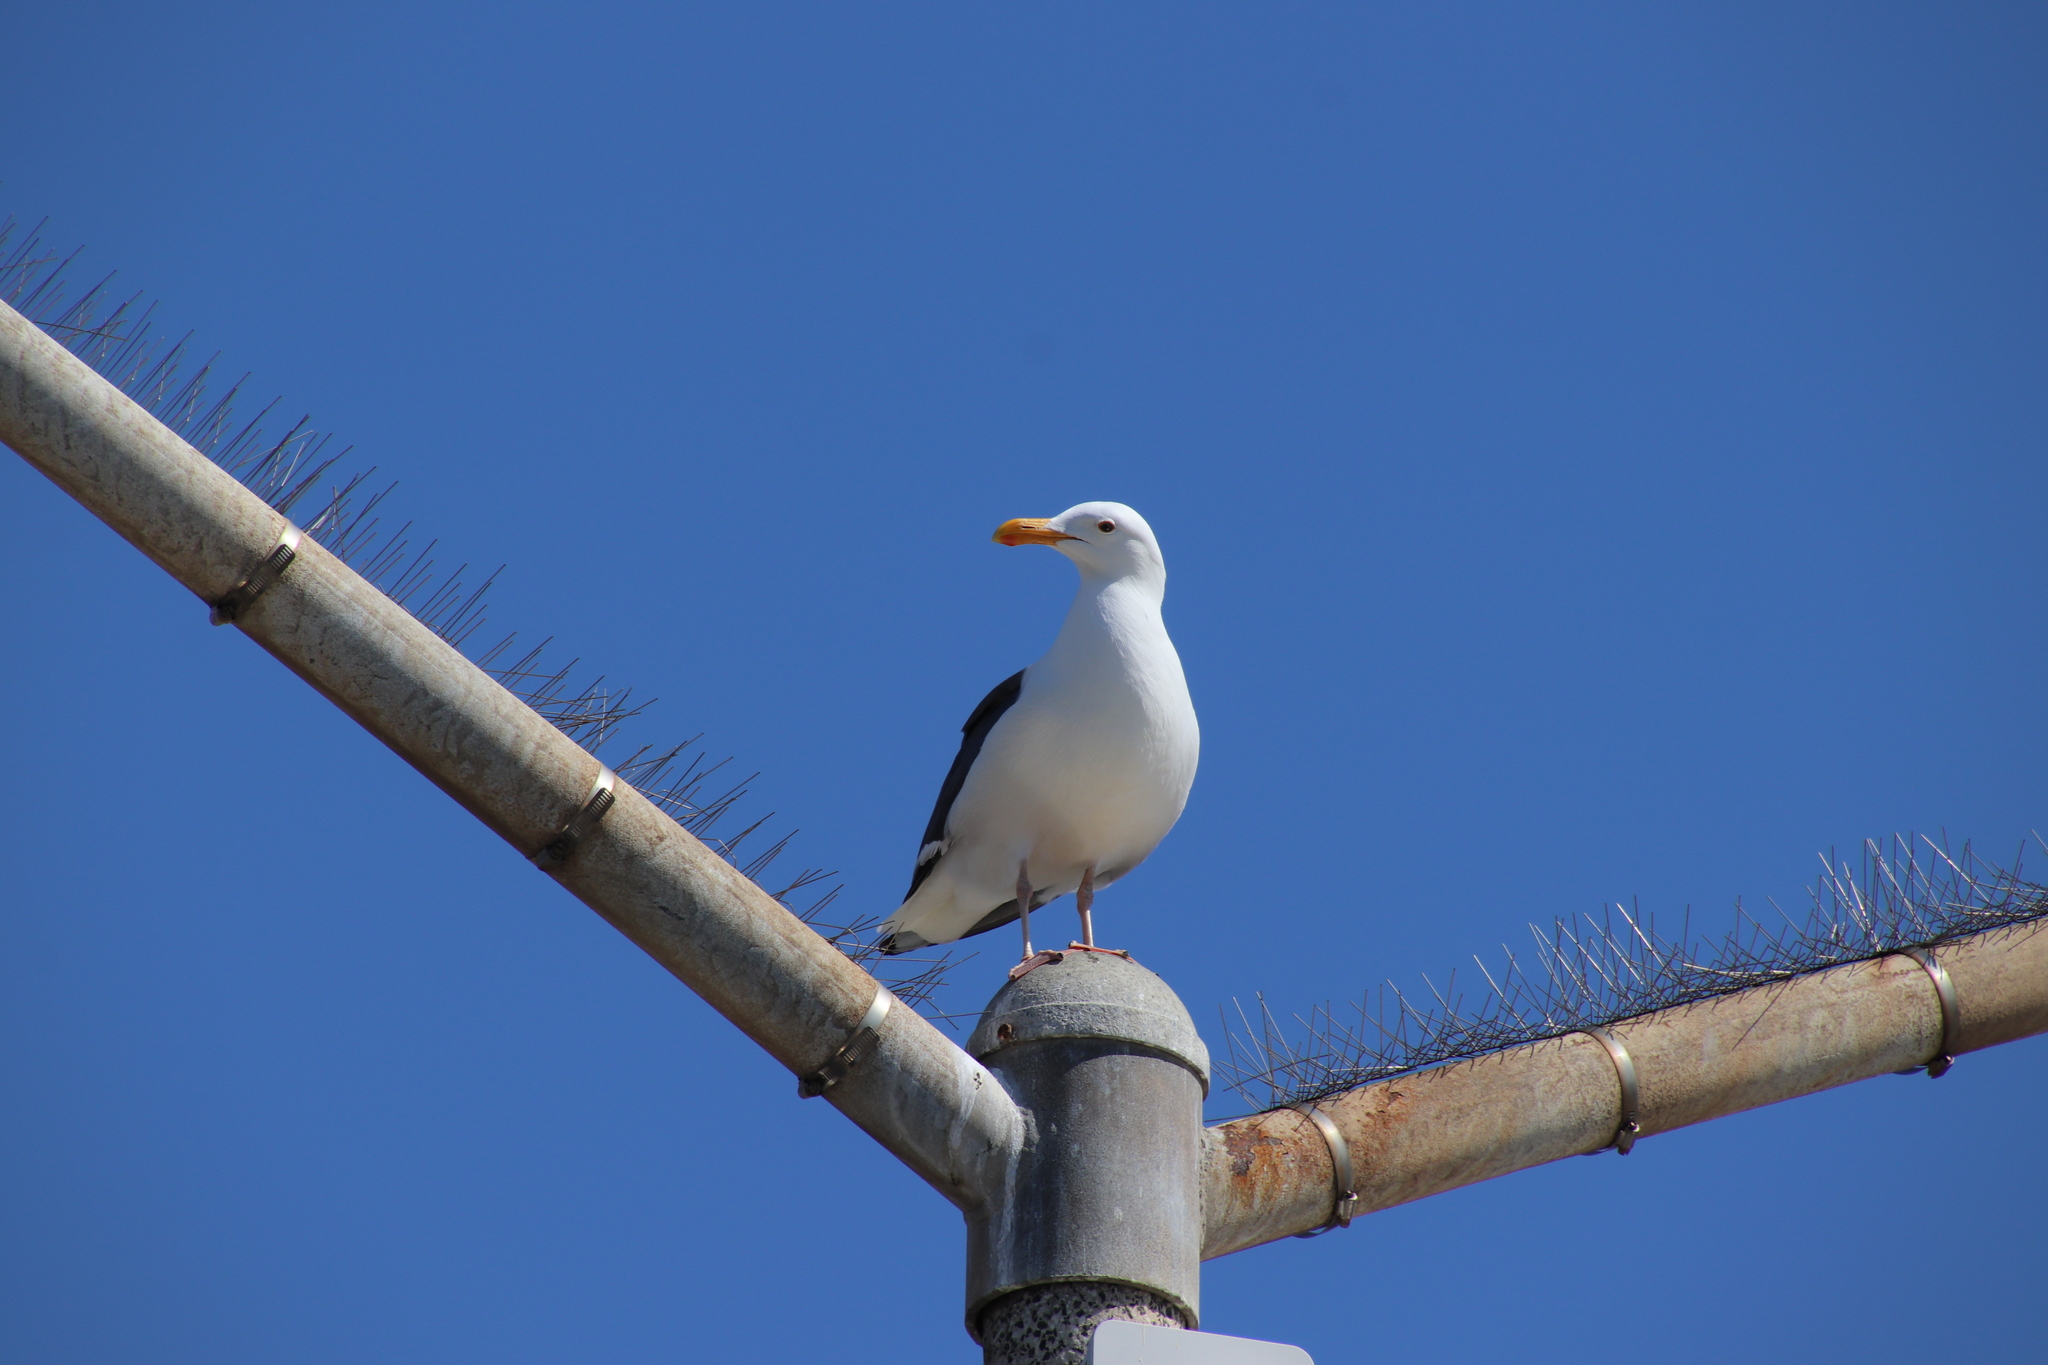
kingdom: Animalia
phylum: Chordata
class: Aves
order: Charadriiformes
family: Laridae
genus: Larus
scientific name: Larus occidentalis
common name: Western gull
